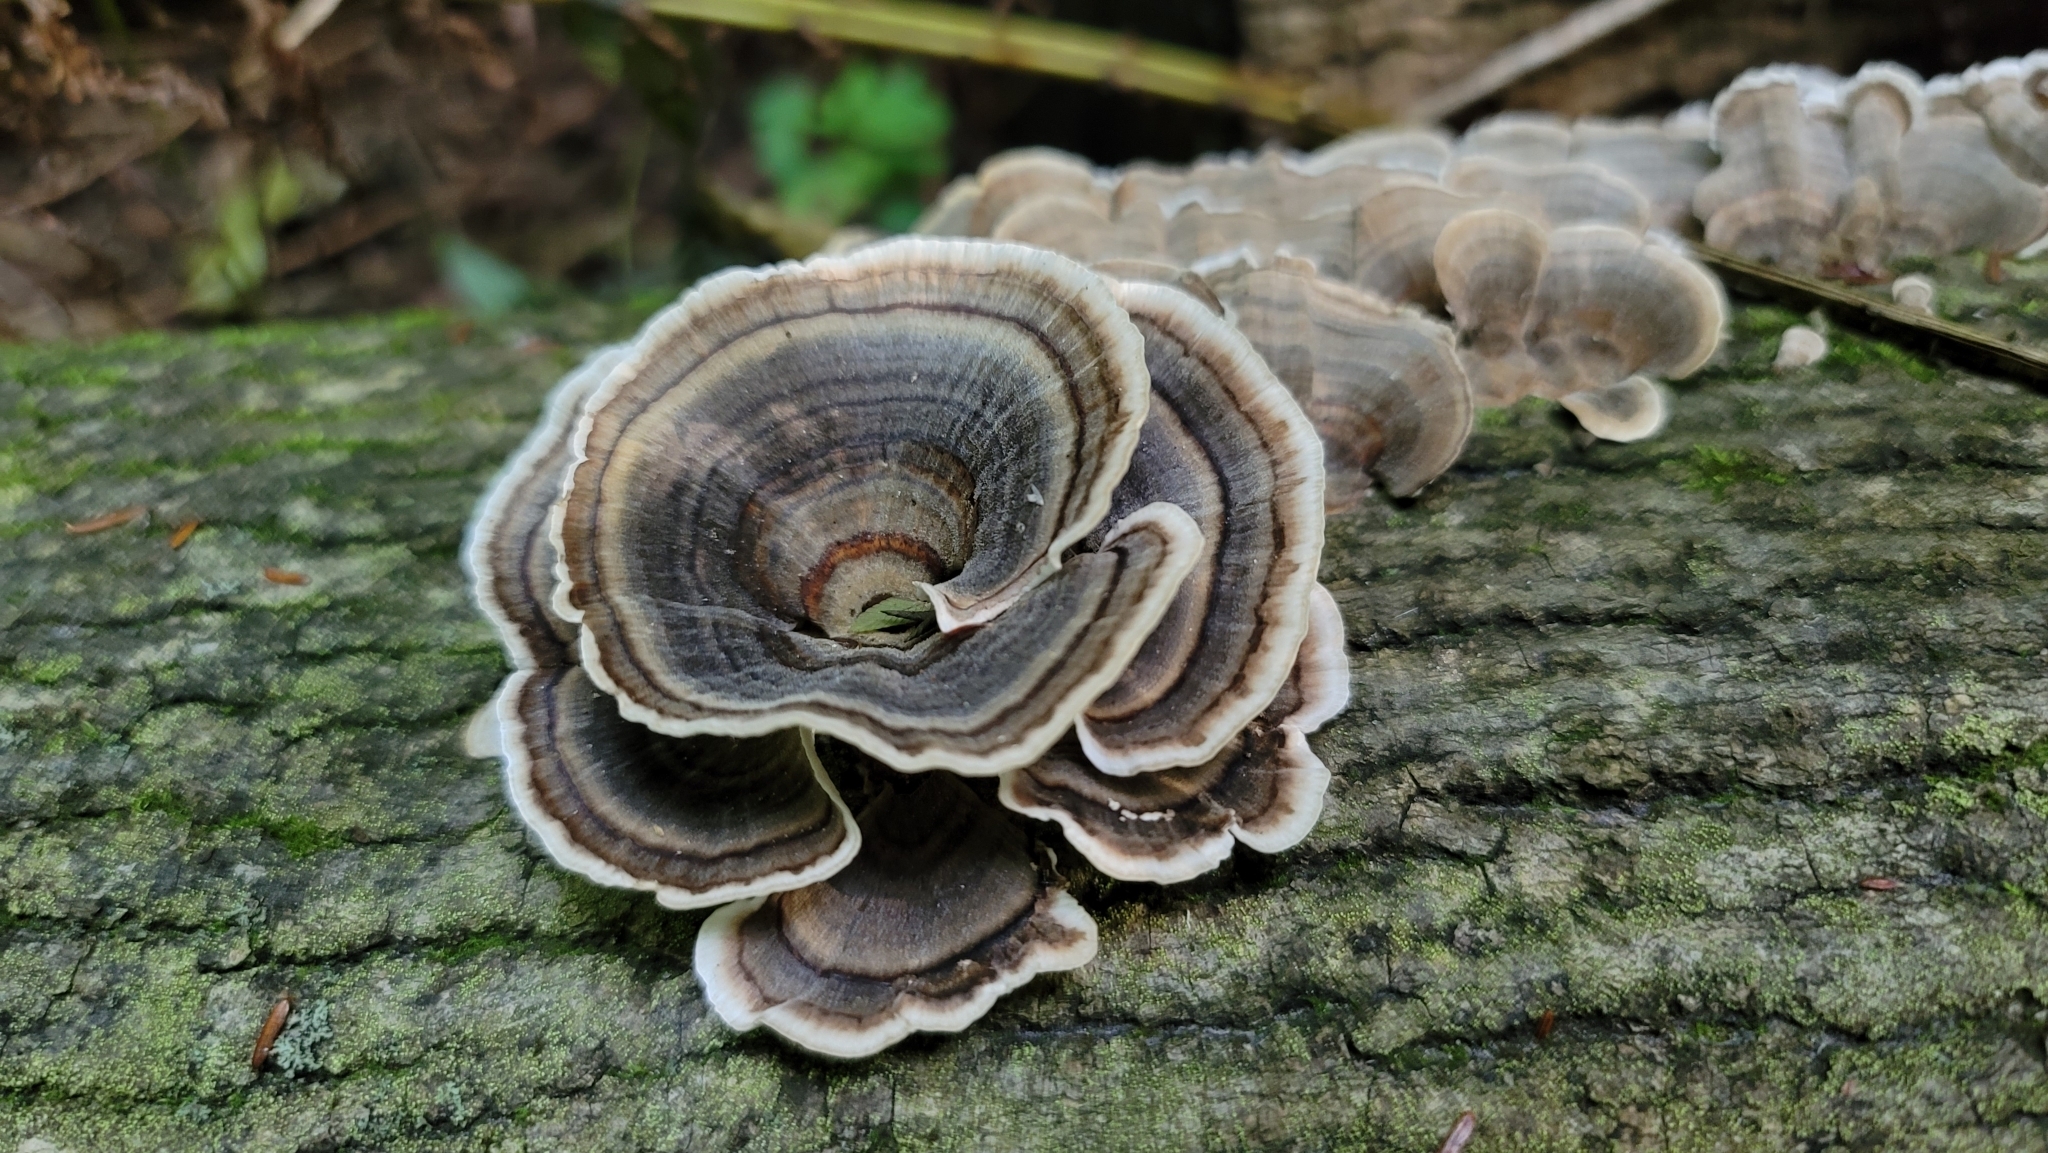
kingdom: Fungi
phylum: Basidiomycota
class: Agaricomycetes
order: Polyporales
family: Polyporaceae
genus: Trametes
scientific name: Trametes versicolor
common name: Turkeytail
